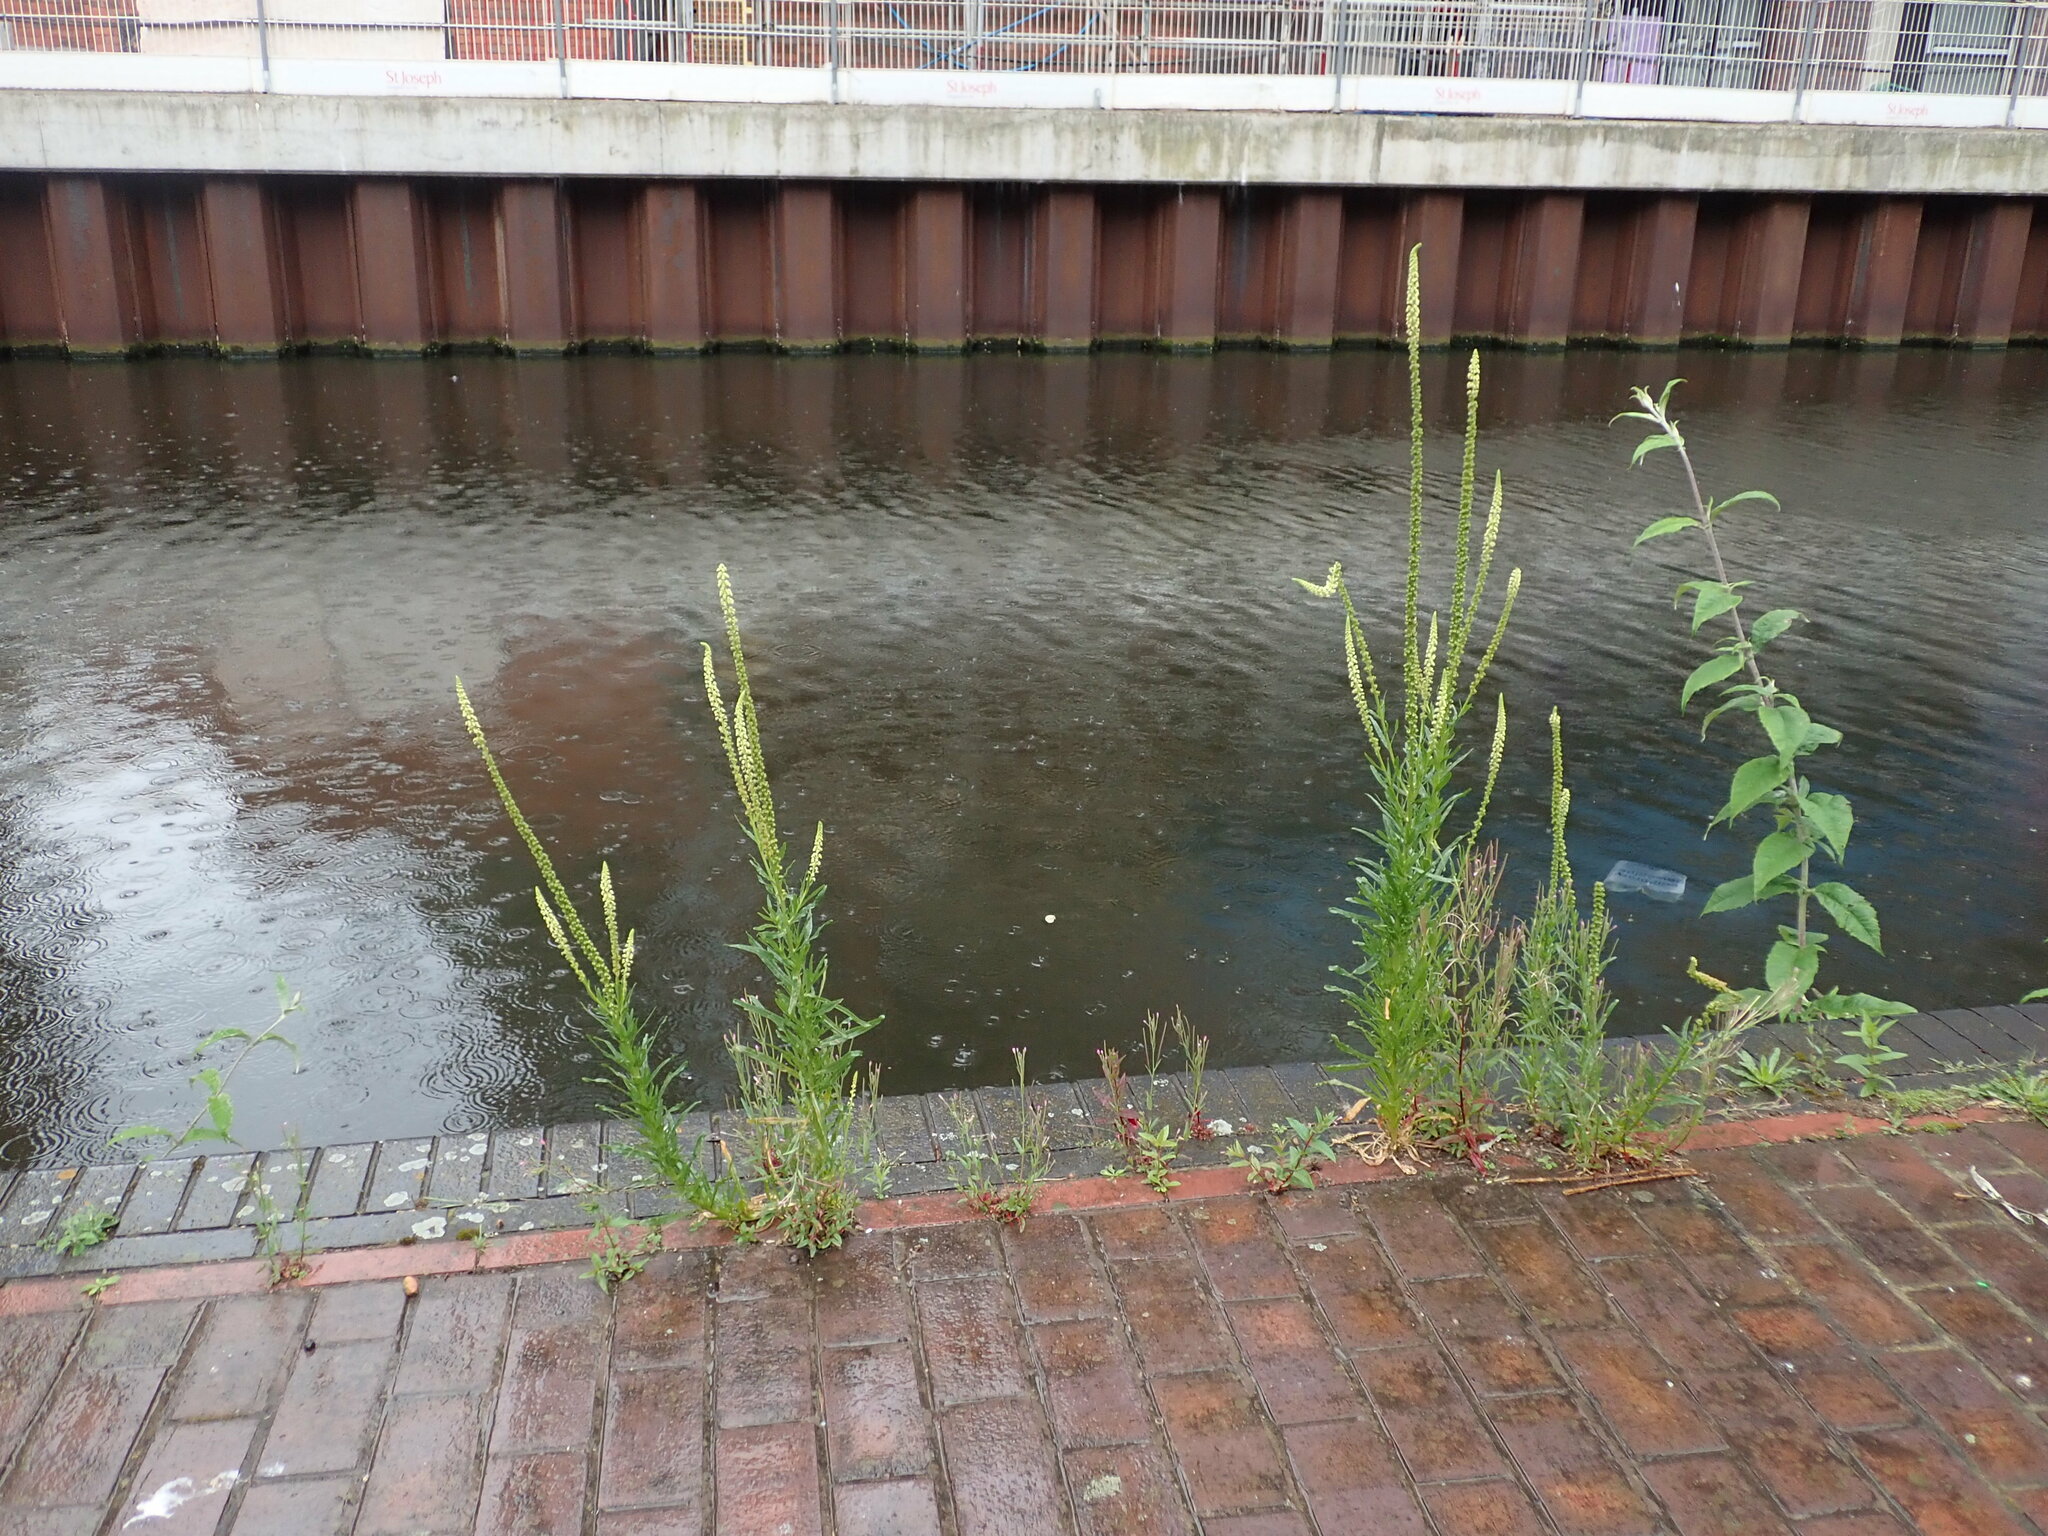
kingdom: Plantae
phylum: Tracheophyta
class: Magnoliopsida
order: Brassicales
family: Resedaceae
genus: Reseda
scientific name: Reseda luteola
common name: Weld
